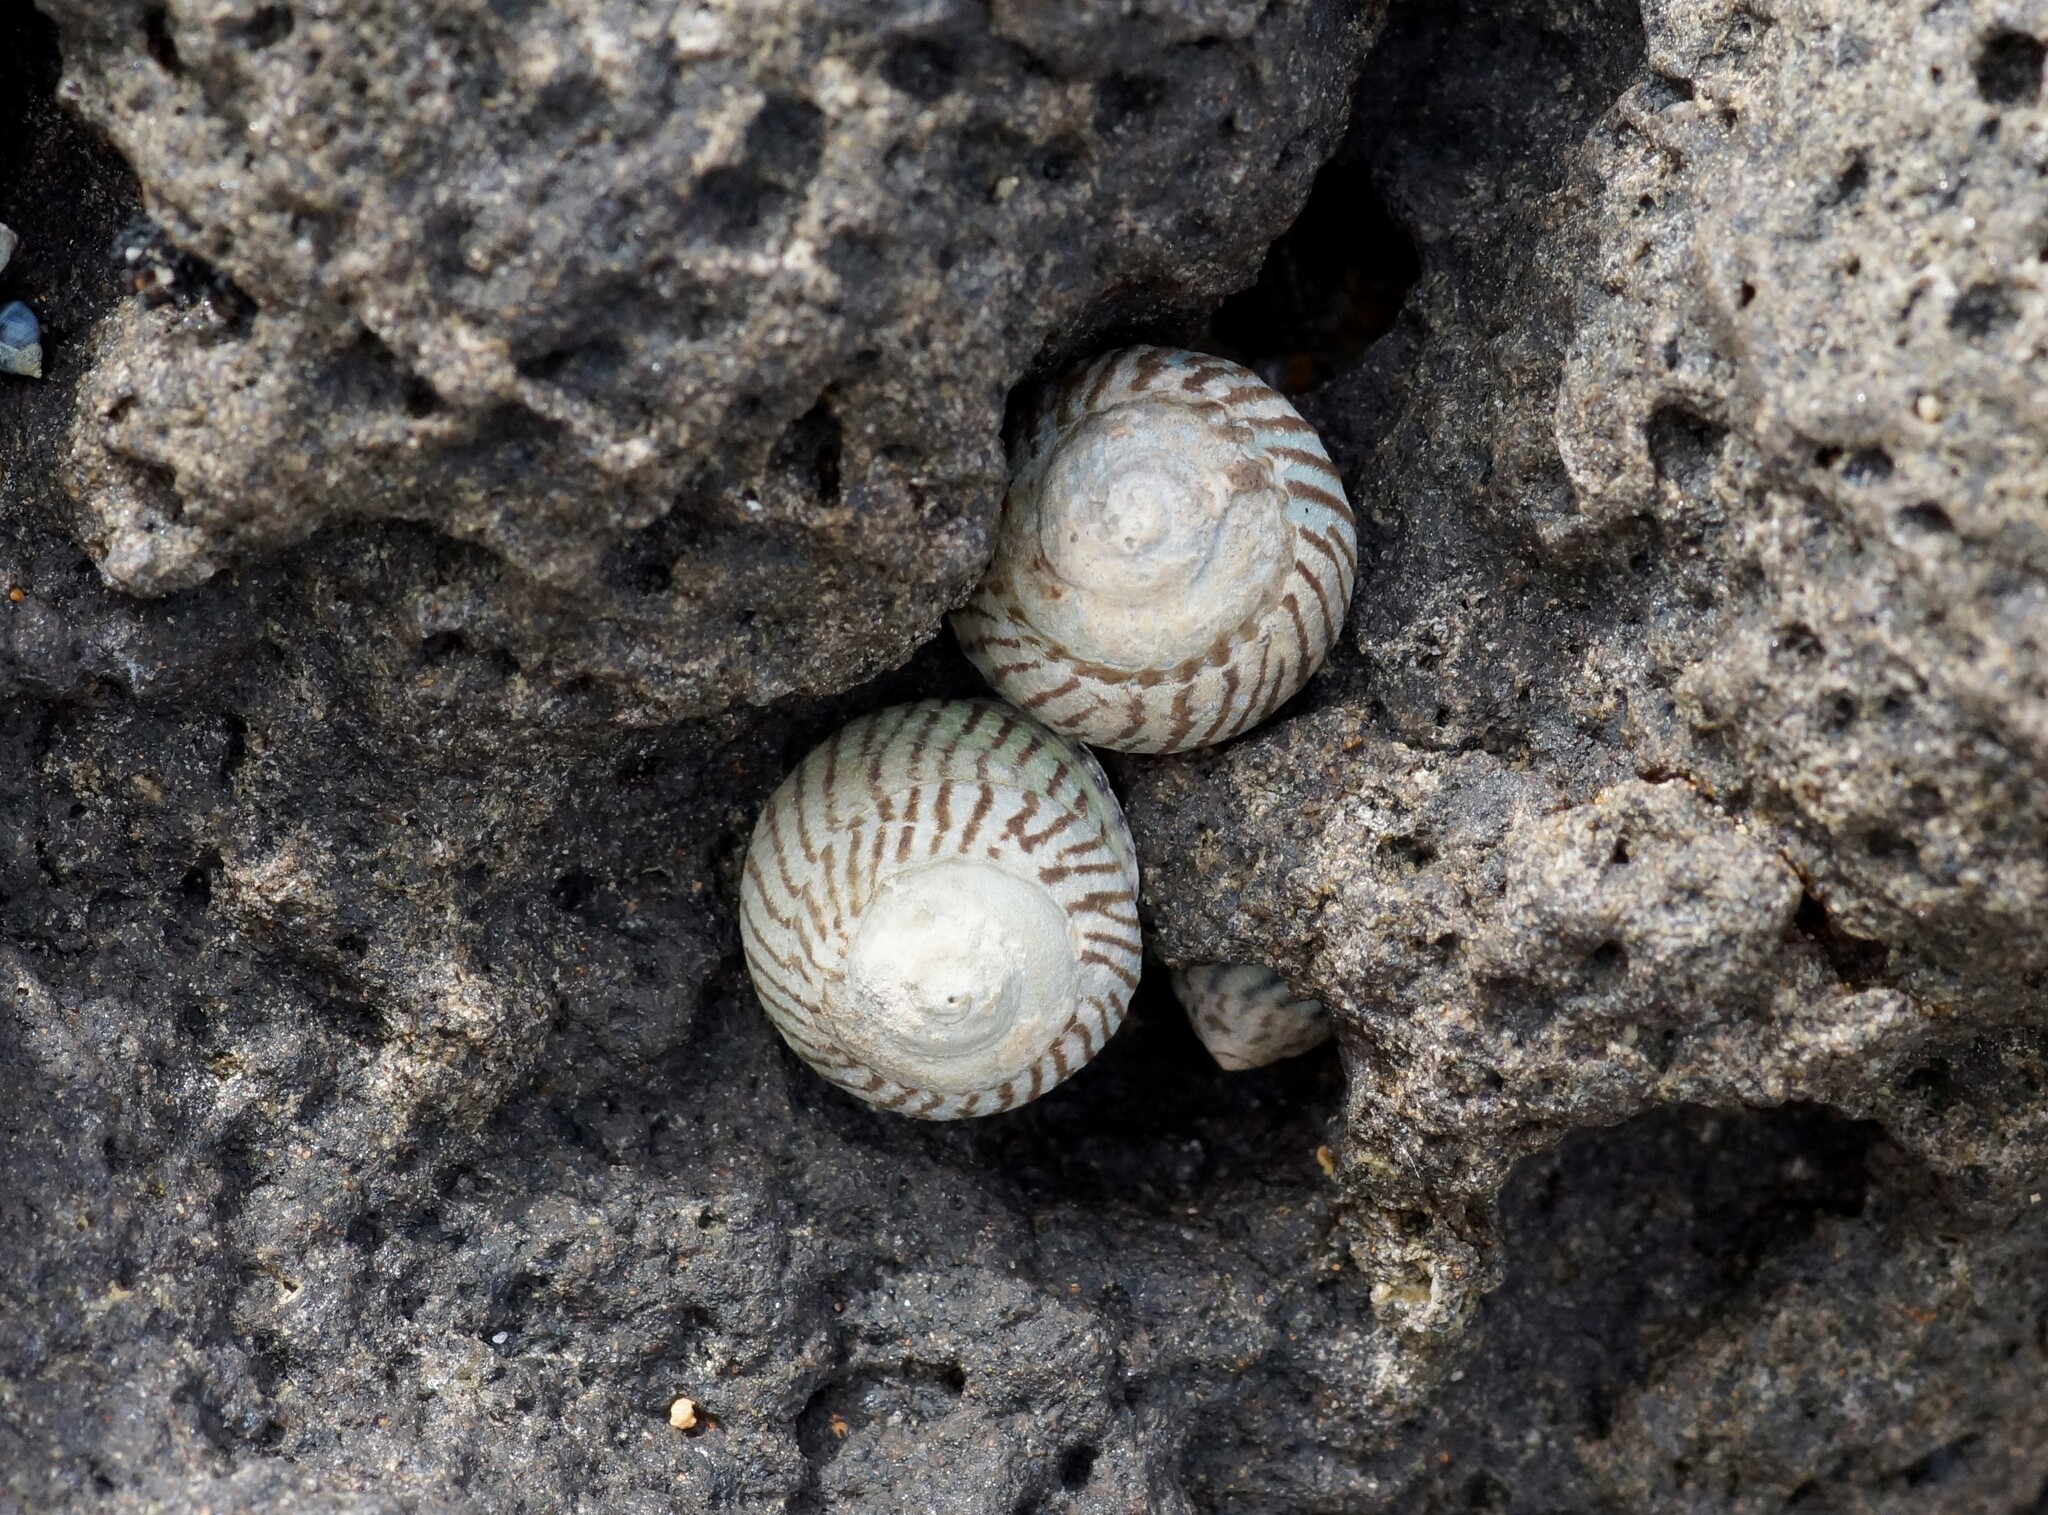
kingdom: Animalia
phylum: Mollusca
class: Gastropoda
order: Littorinimorpha
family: Littorinidae
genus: Bembicium
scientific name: Bembicium nanum
